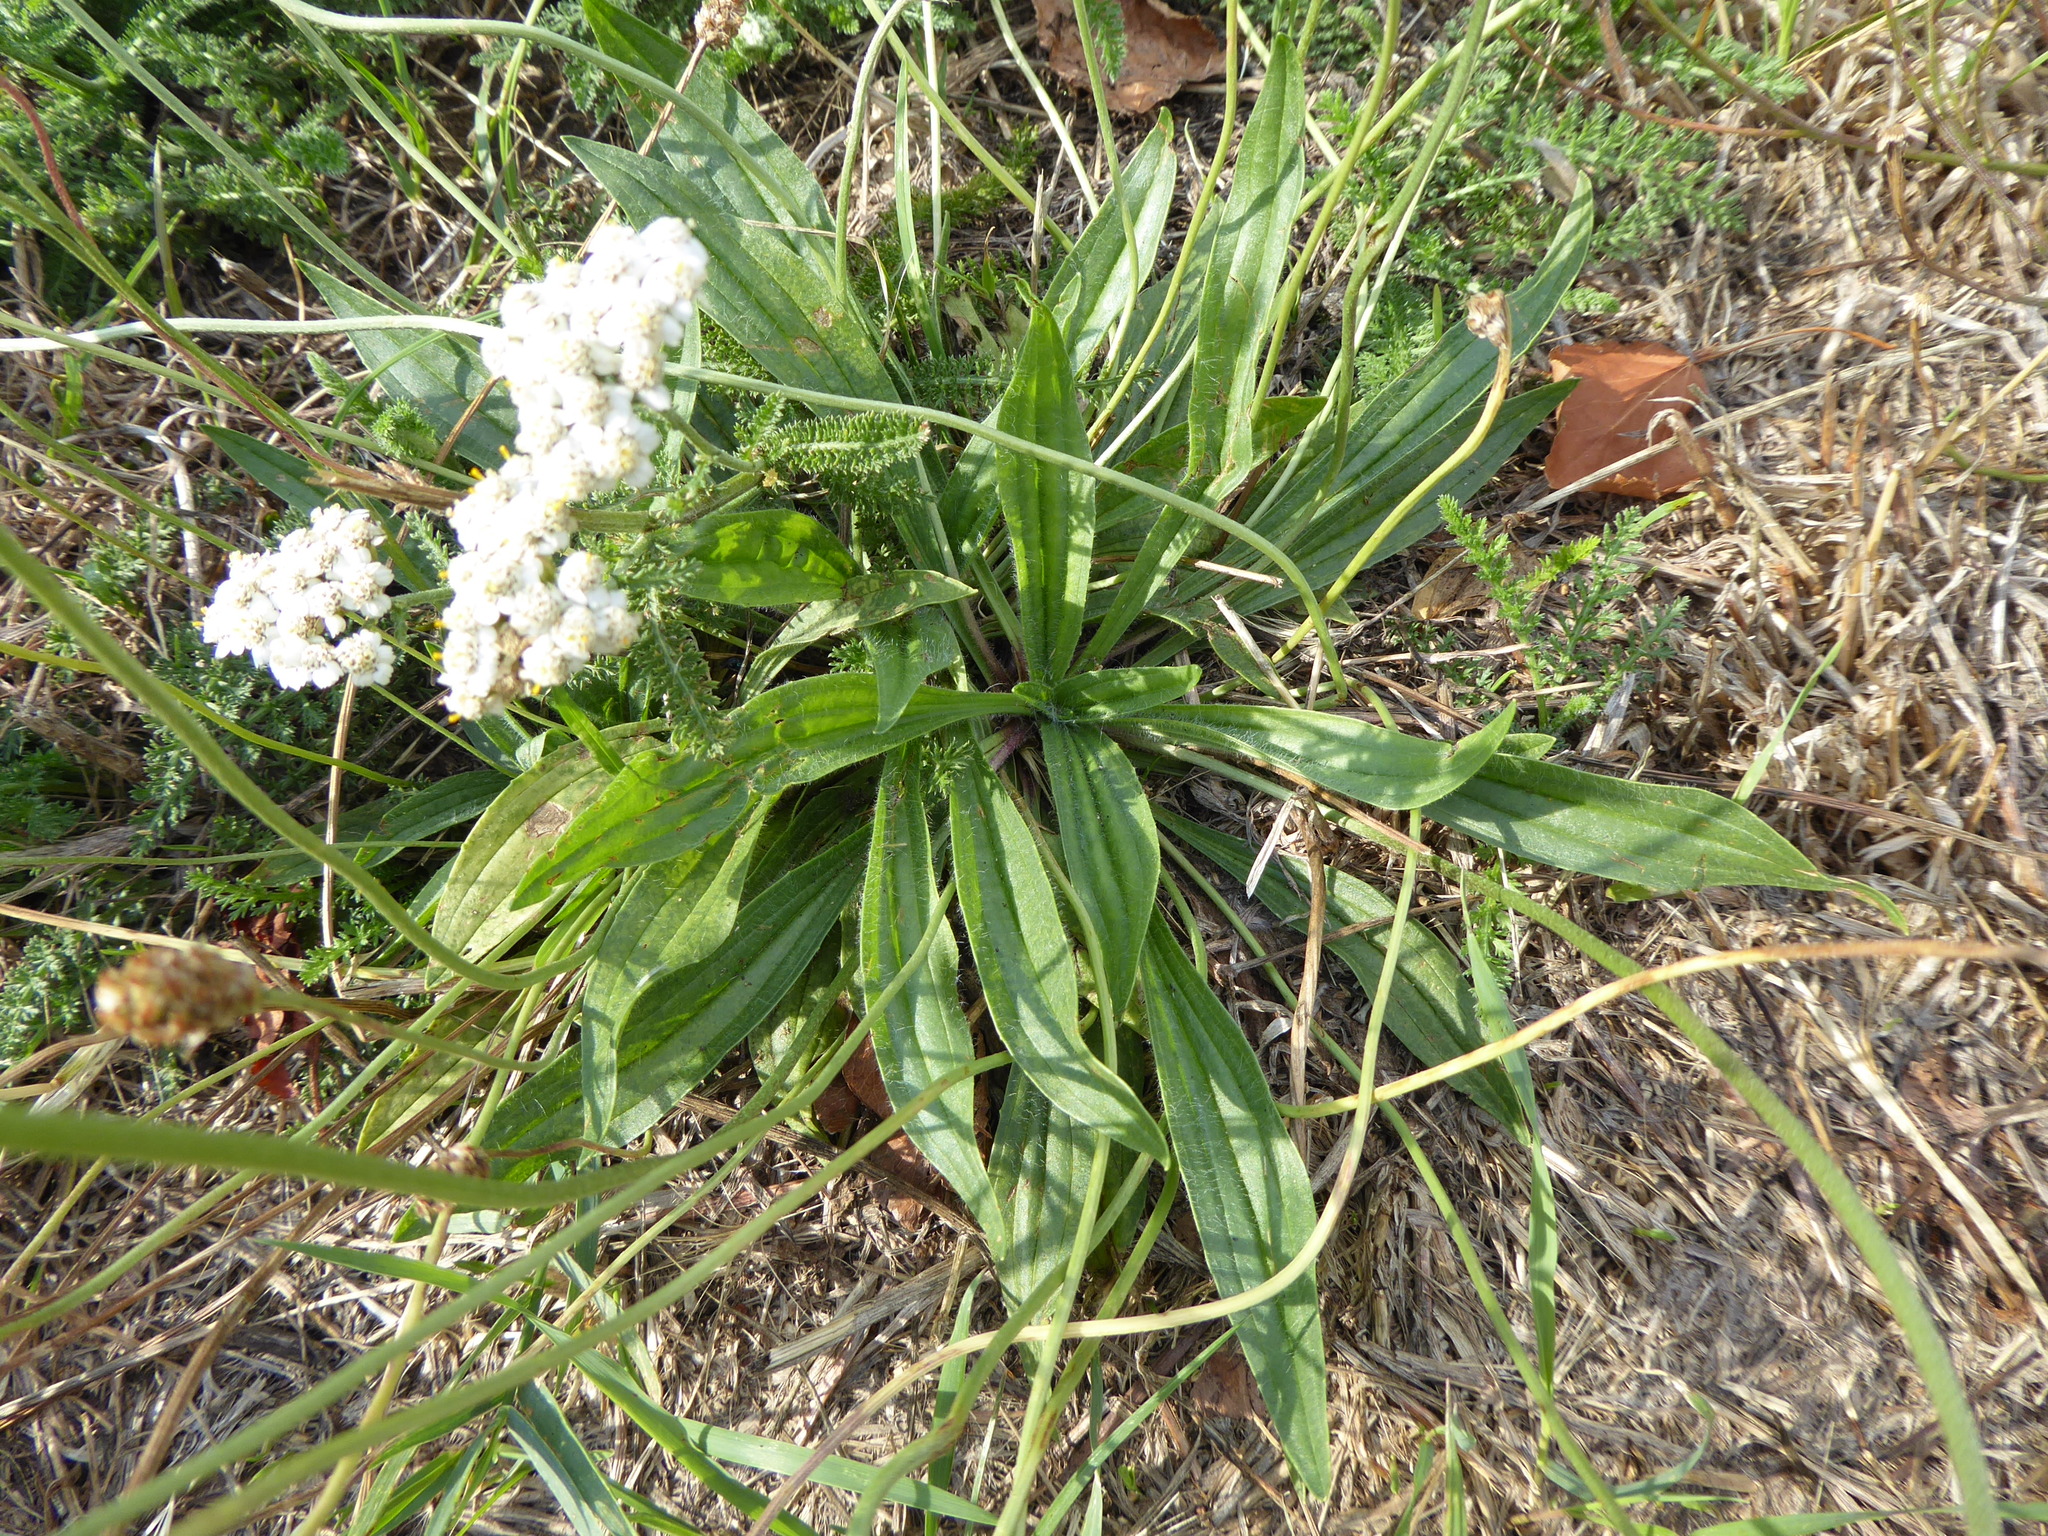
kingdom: Plantae
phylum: Tracheophyta
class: Magnoliopsida
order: Lamiales
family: Plantaginaceae
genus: Plantago
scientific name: Plantago lanceolata
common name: Ribwort plantain
